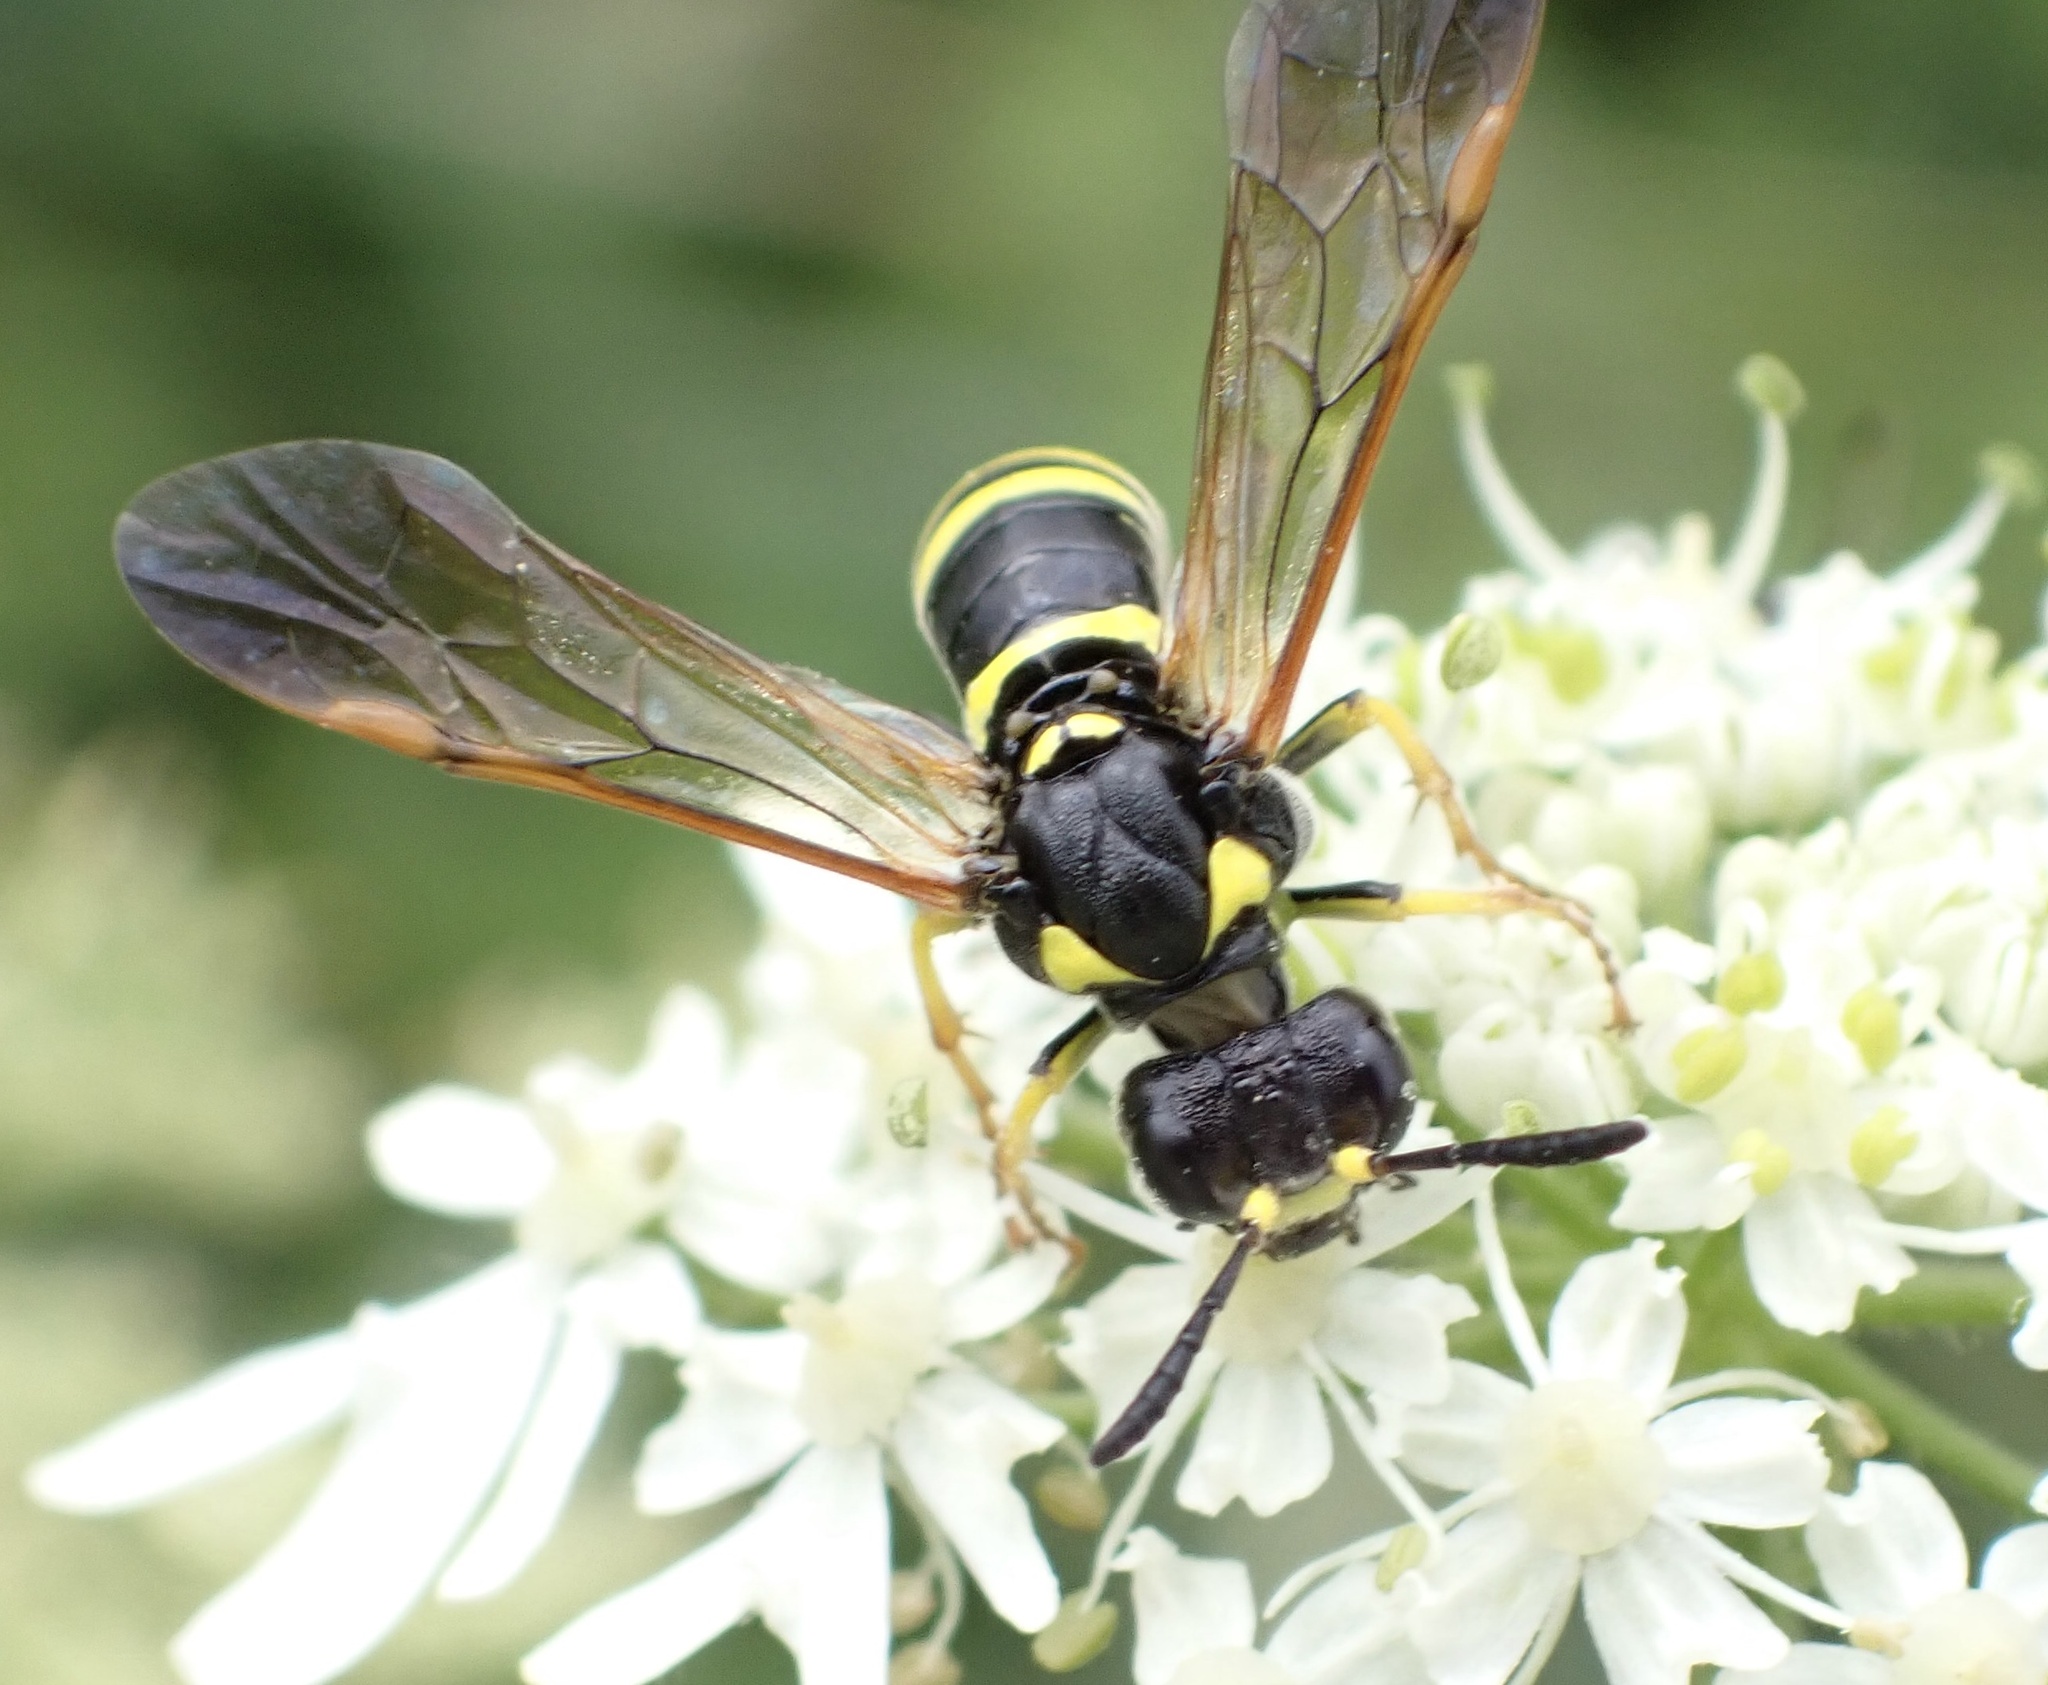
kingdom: Animalia
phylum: Arthropoda
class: Insecta
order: Hymenoptera
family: Tenthredinidae
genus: Tenthredo
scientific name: Tenthredo omissa
